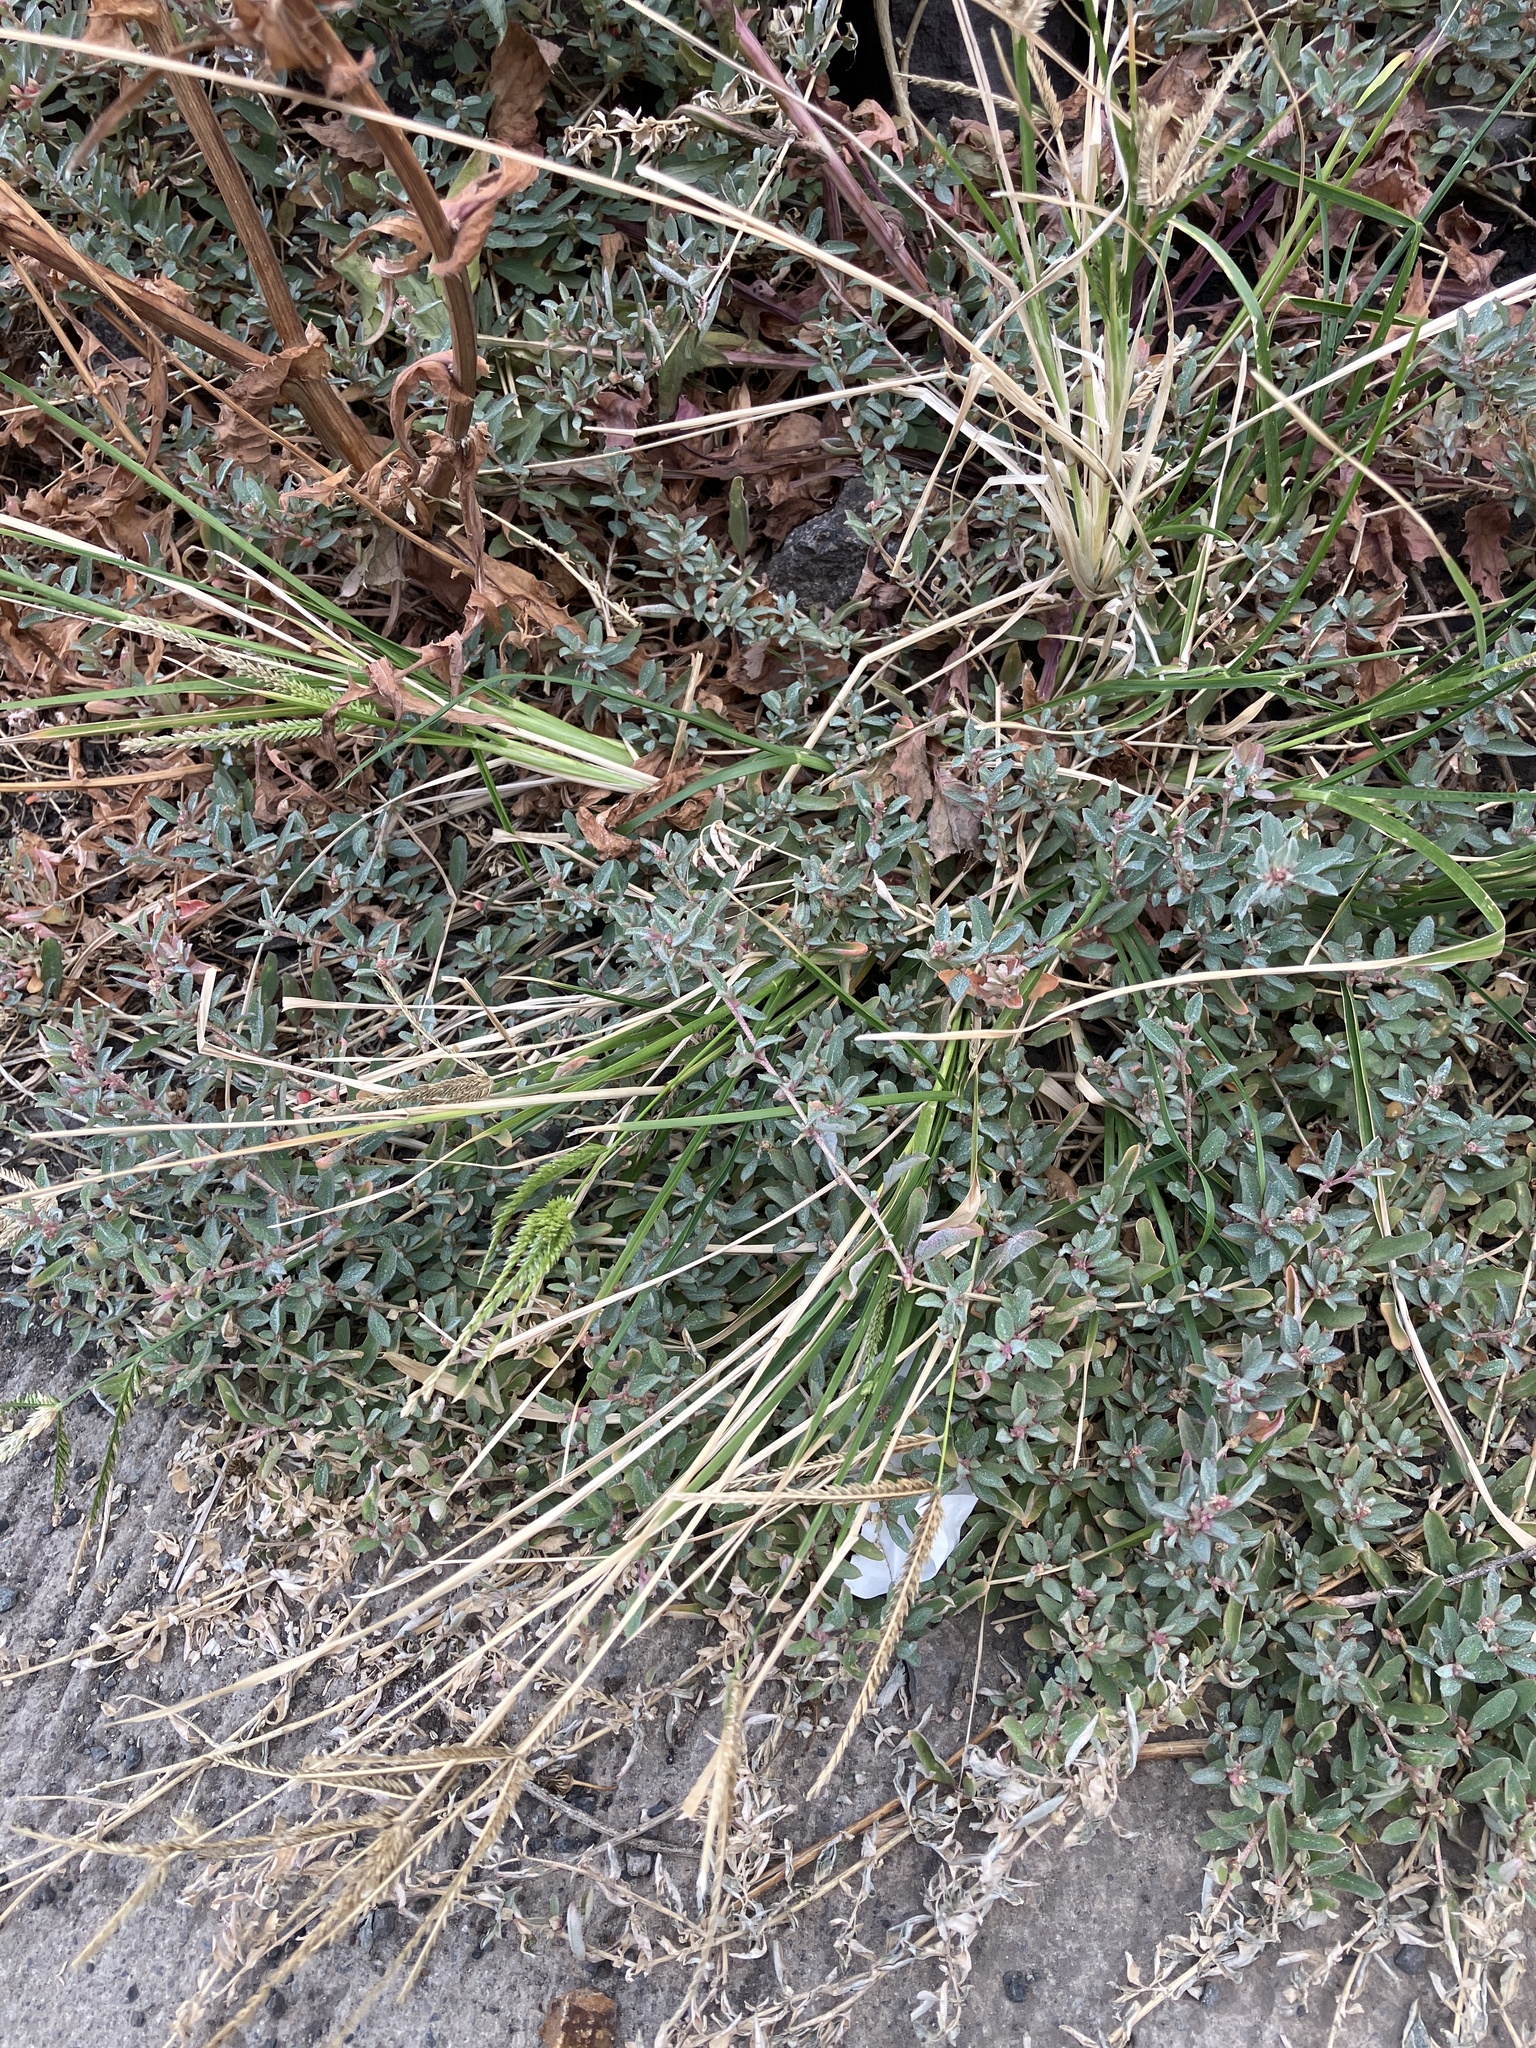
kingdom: Plantae
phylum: Tracheophyta
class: Liliopsida
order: Poales
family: Poaceae
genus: Eleusine
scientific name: Eleusine indica
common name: Yard-grass
